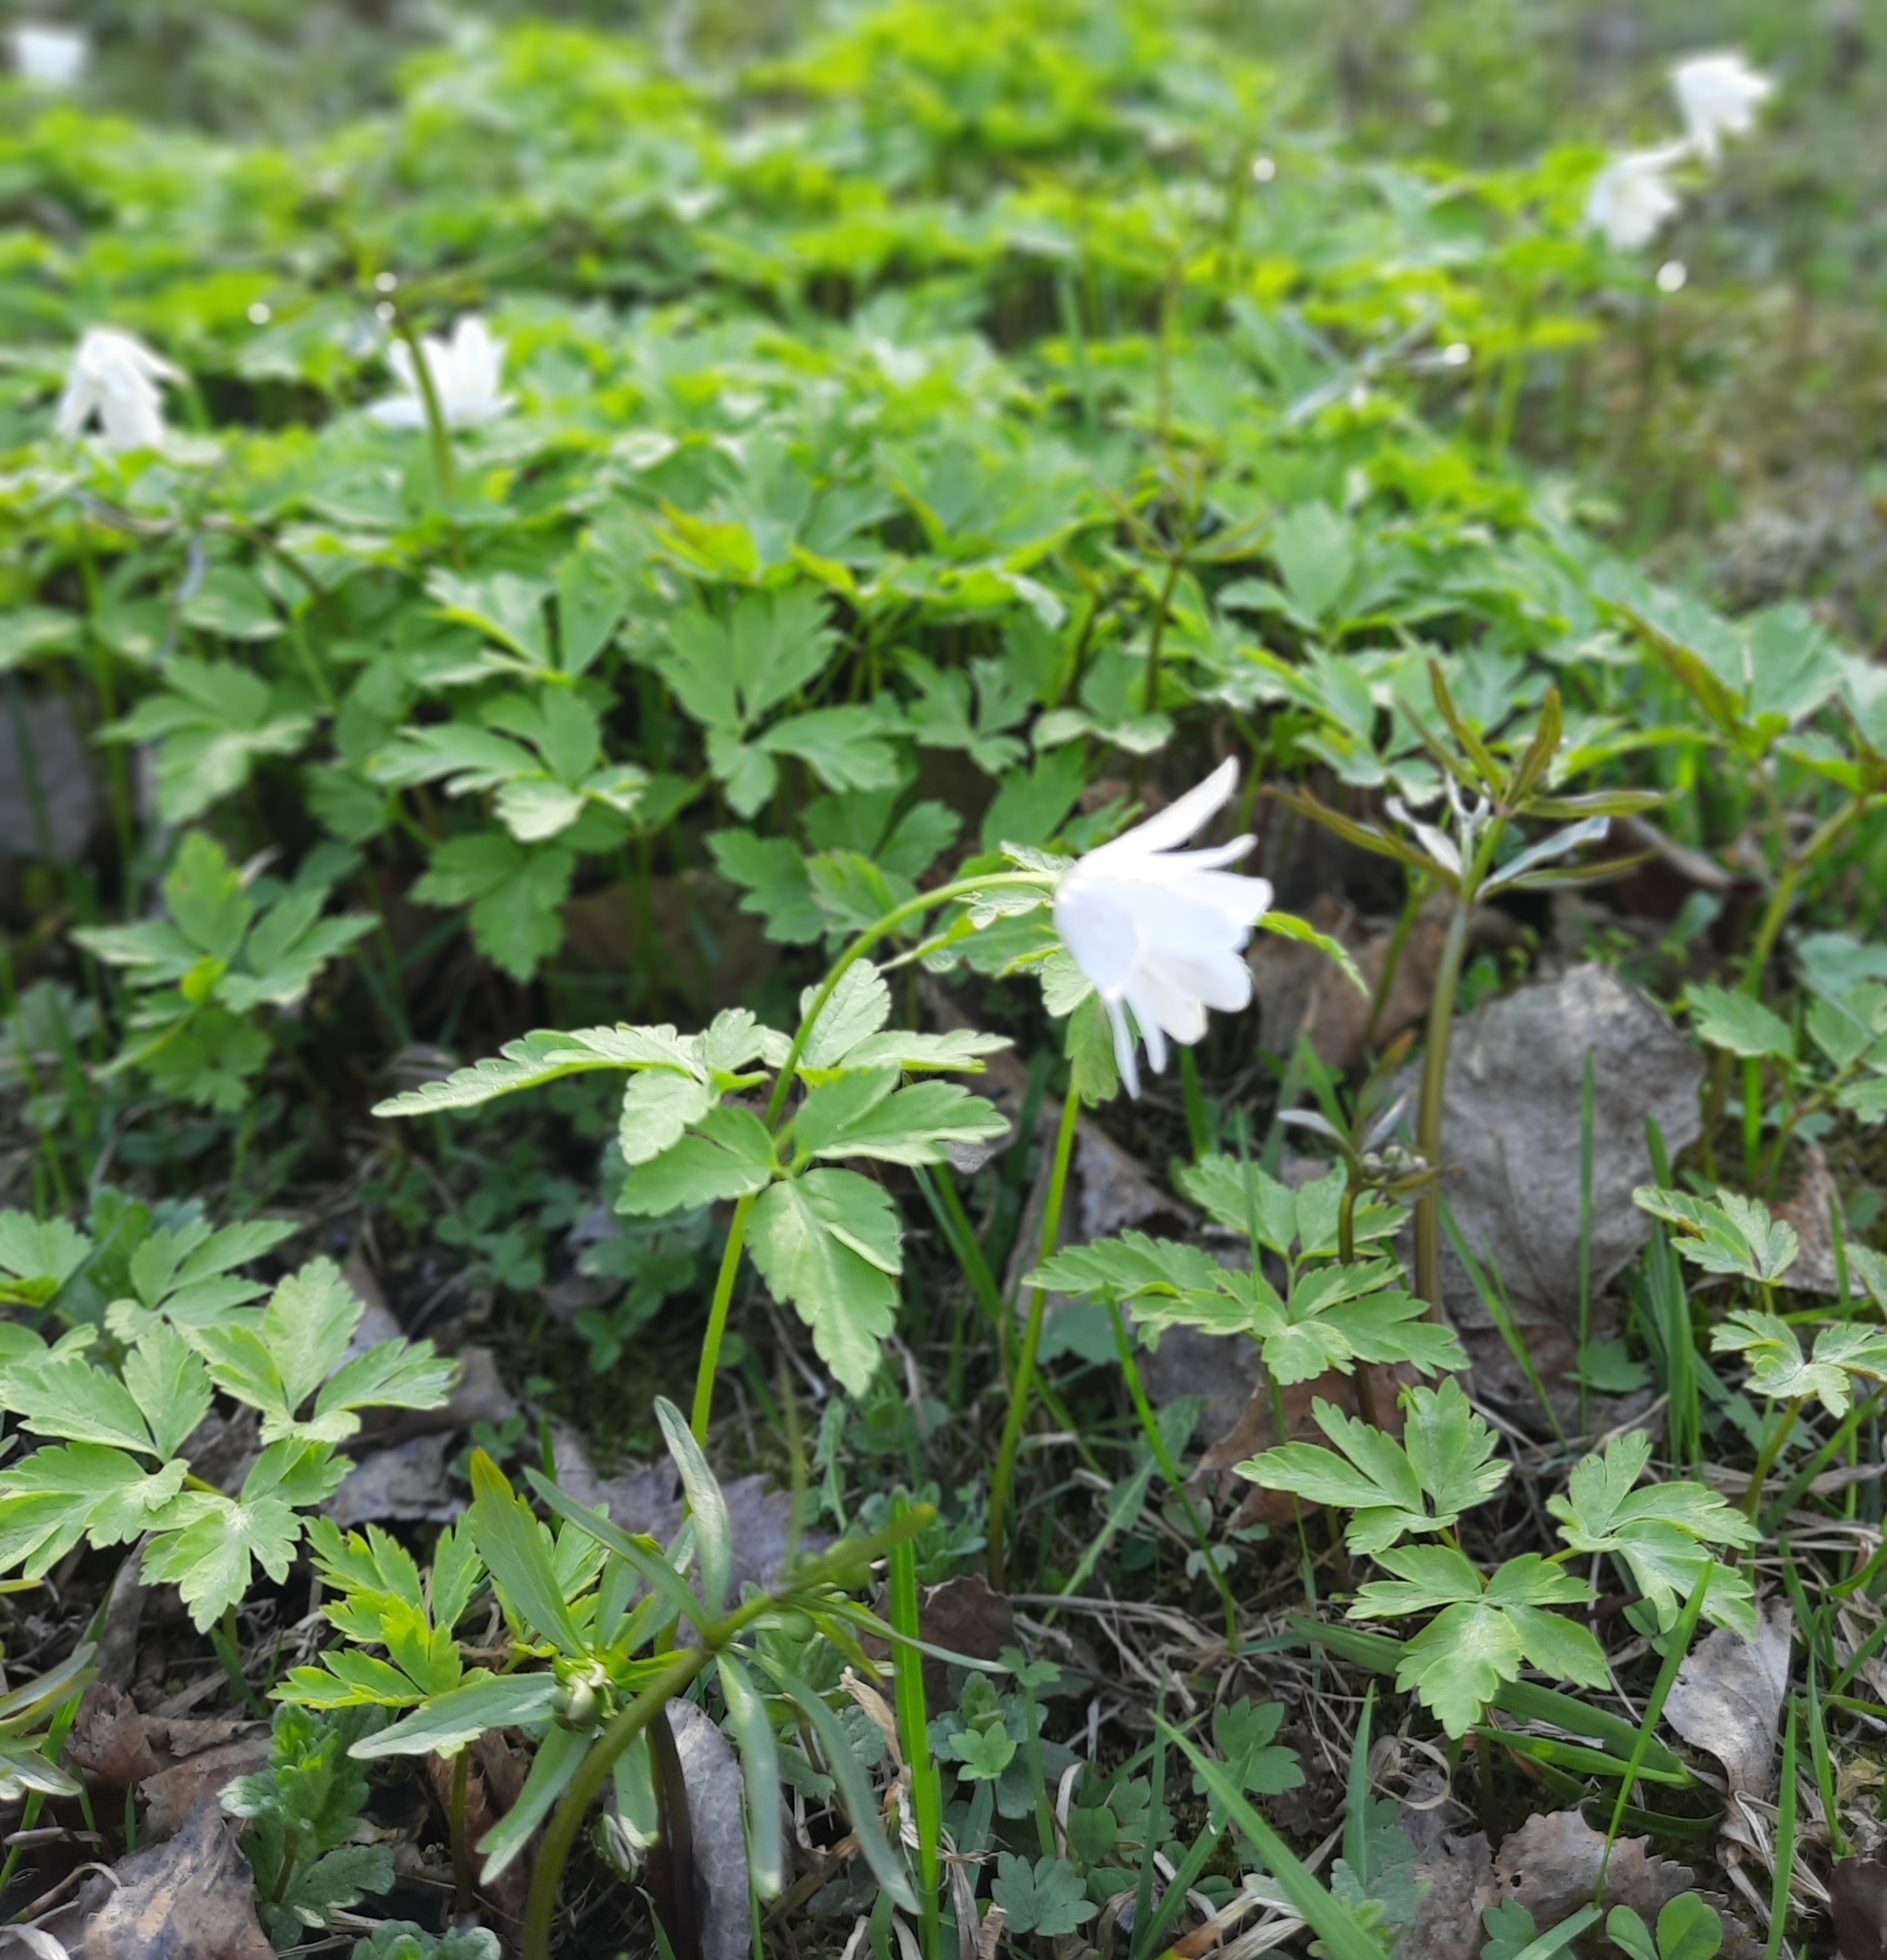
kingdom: Plantae
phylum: Tracheophyta
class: Magnoliopsida
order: Ranunculales
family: Ranunculaceae
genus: Anemone
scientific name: Anemone altaica
